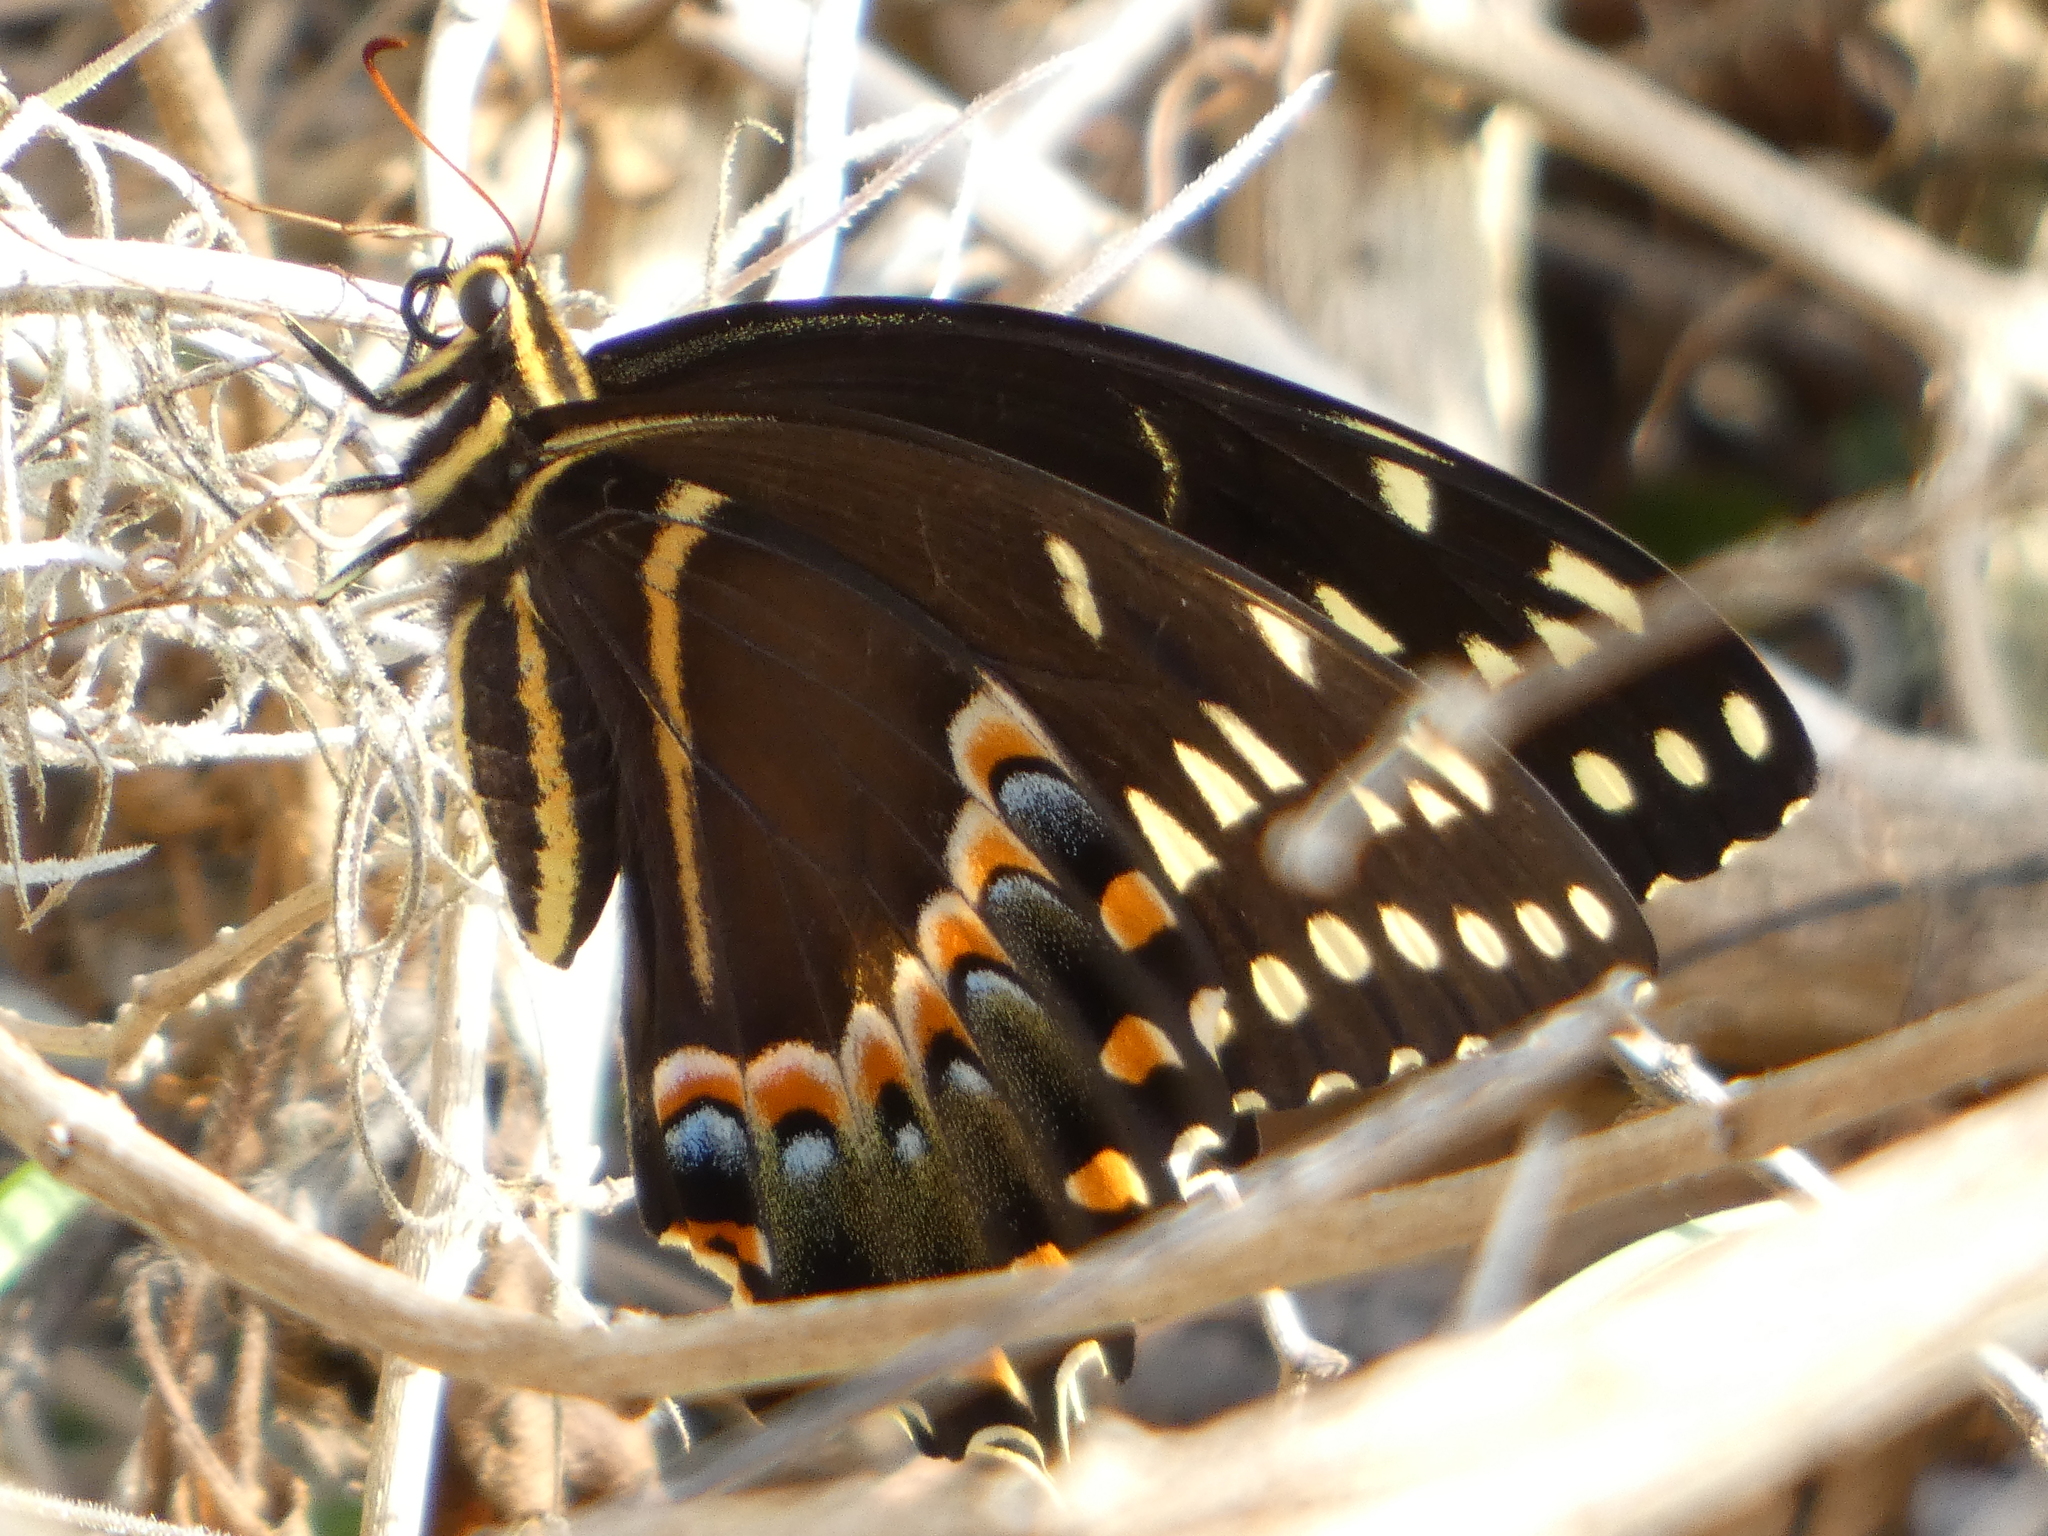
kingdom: Animalia
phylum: Arthropoda
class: Insecta
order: Lepidoptera
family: Papilionidae
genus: Papilio
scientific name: Papilio palamedes
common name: Palamedes swallowtail
